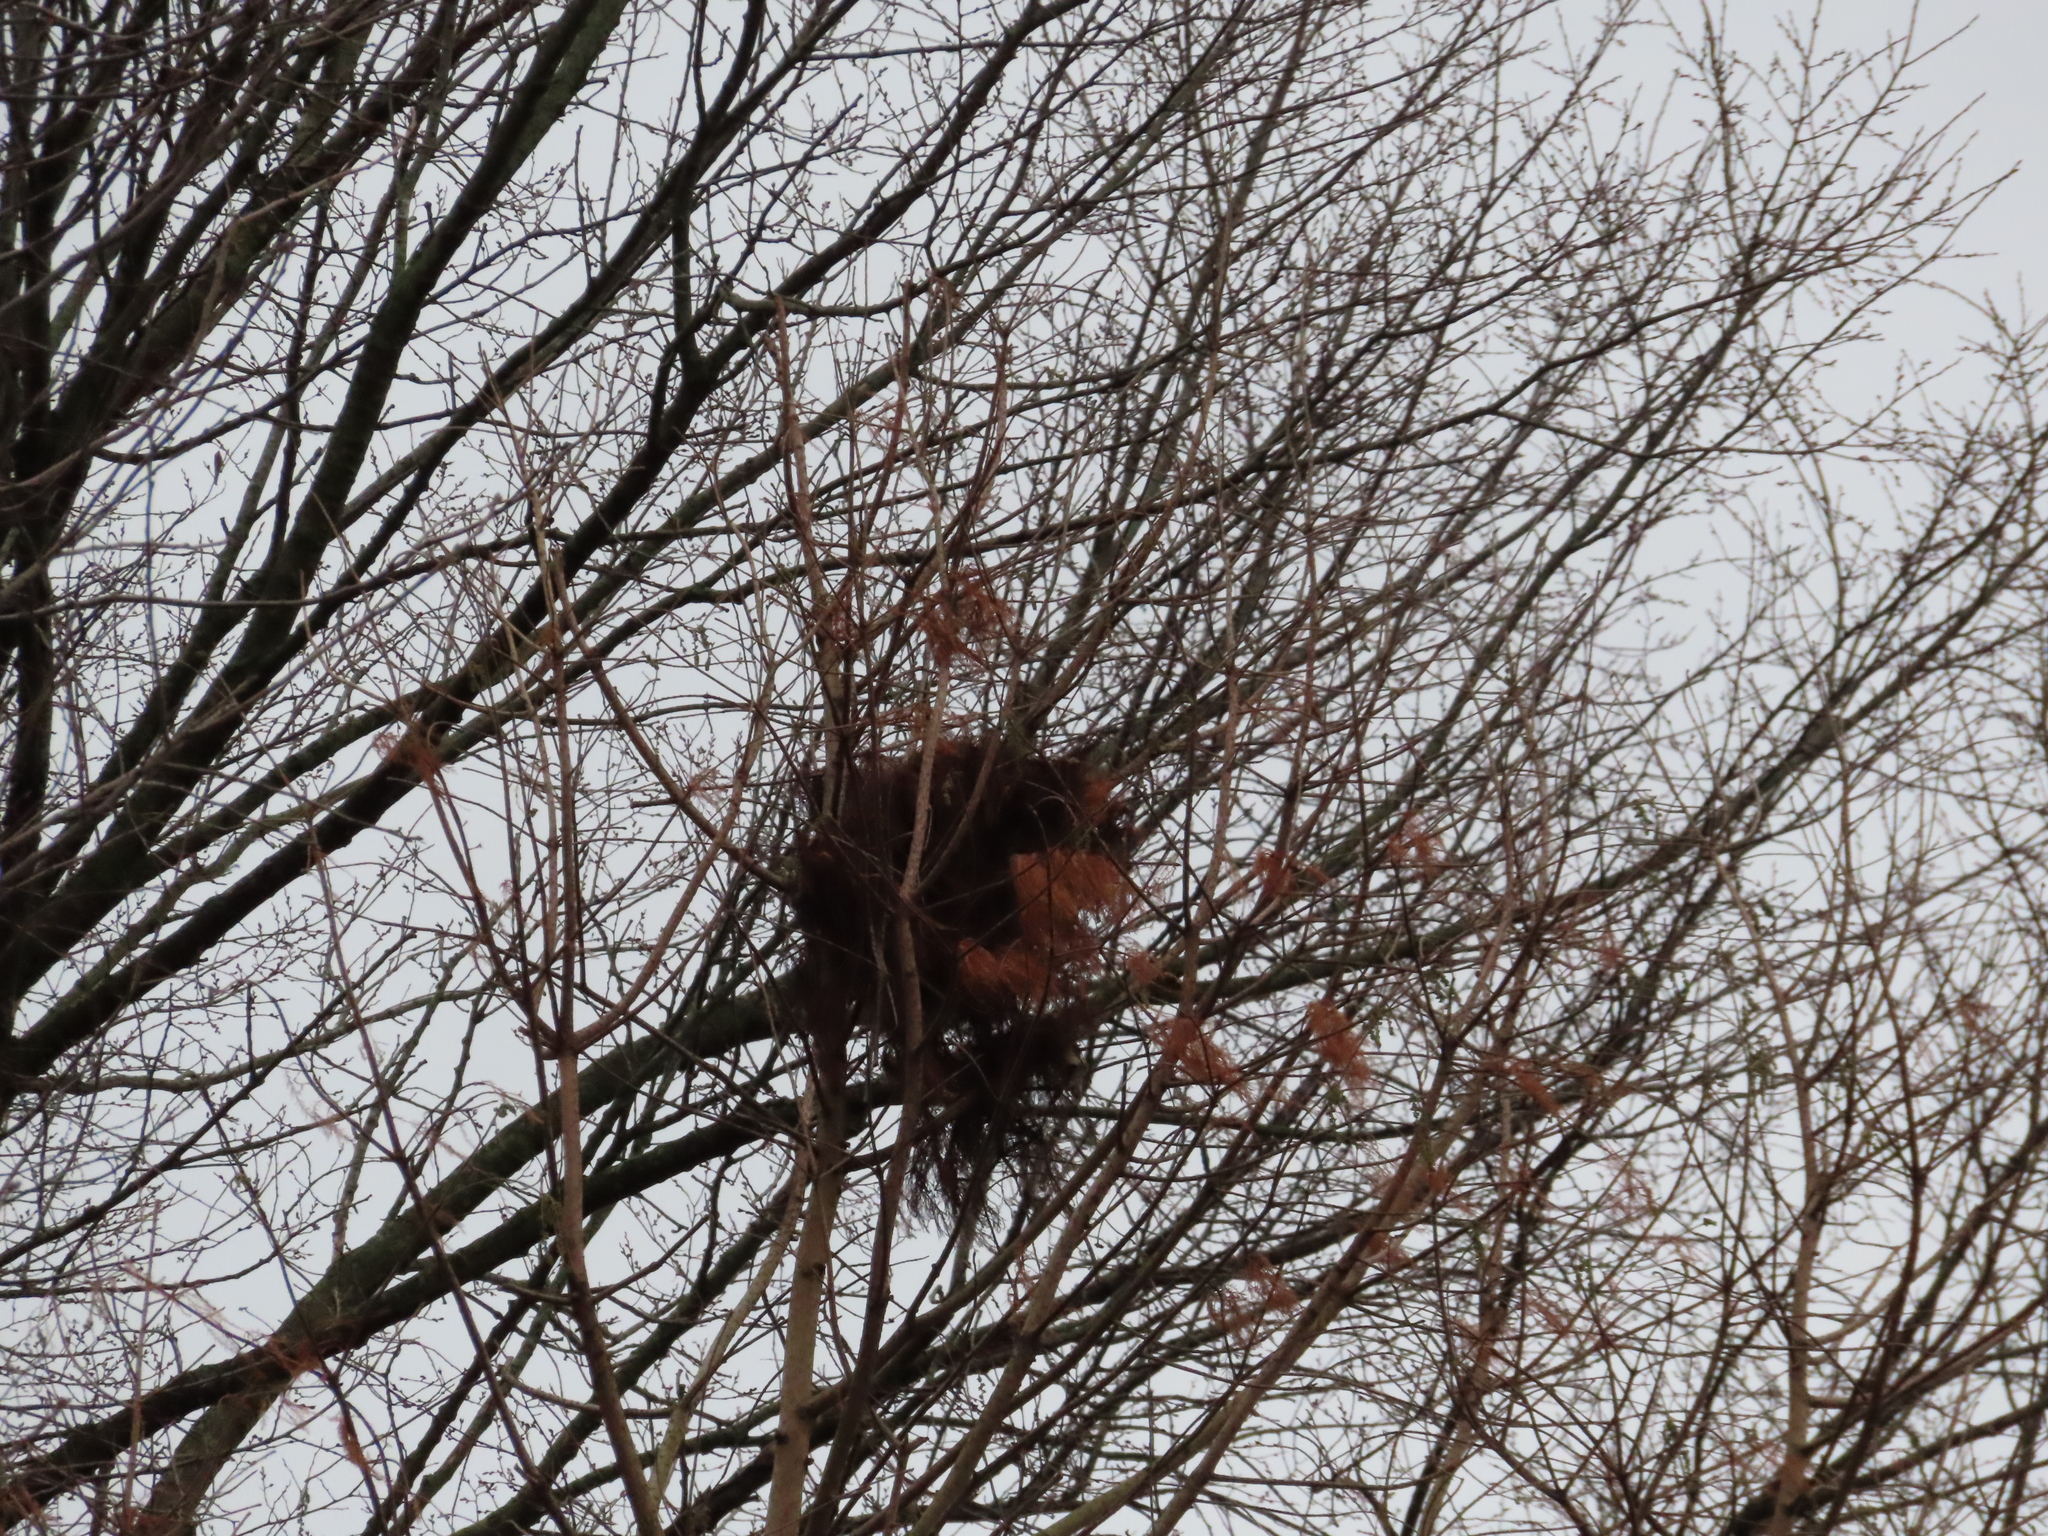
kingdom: Animalia
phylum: Chordata
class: Mammalia
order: Rodentia
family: Sciuridae
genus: Sciurus
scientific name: Sciurus carolinensis
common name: Eastern gray squirrel
